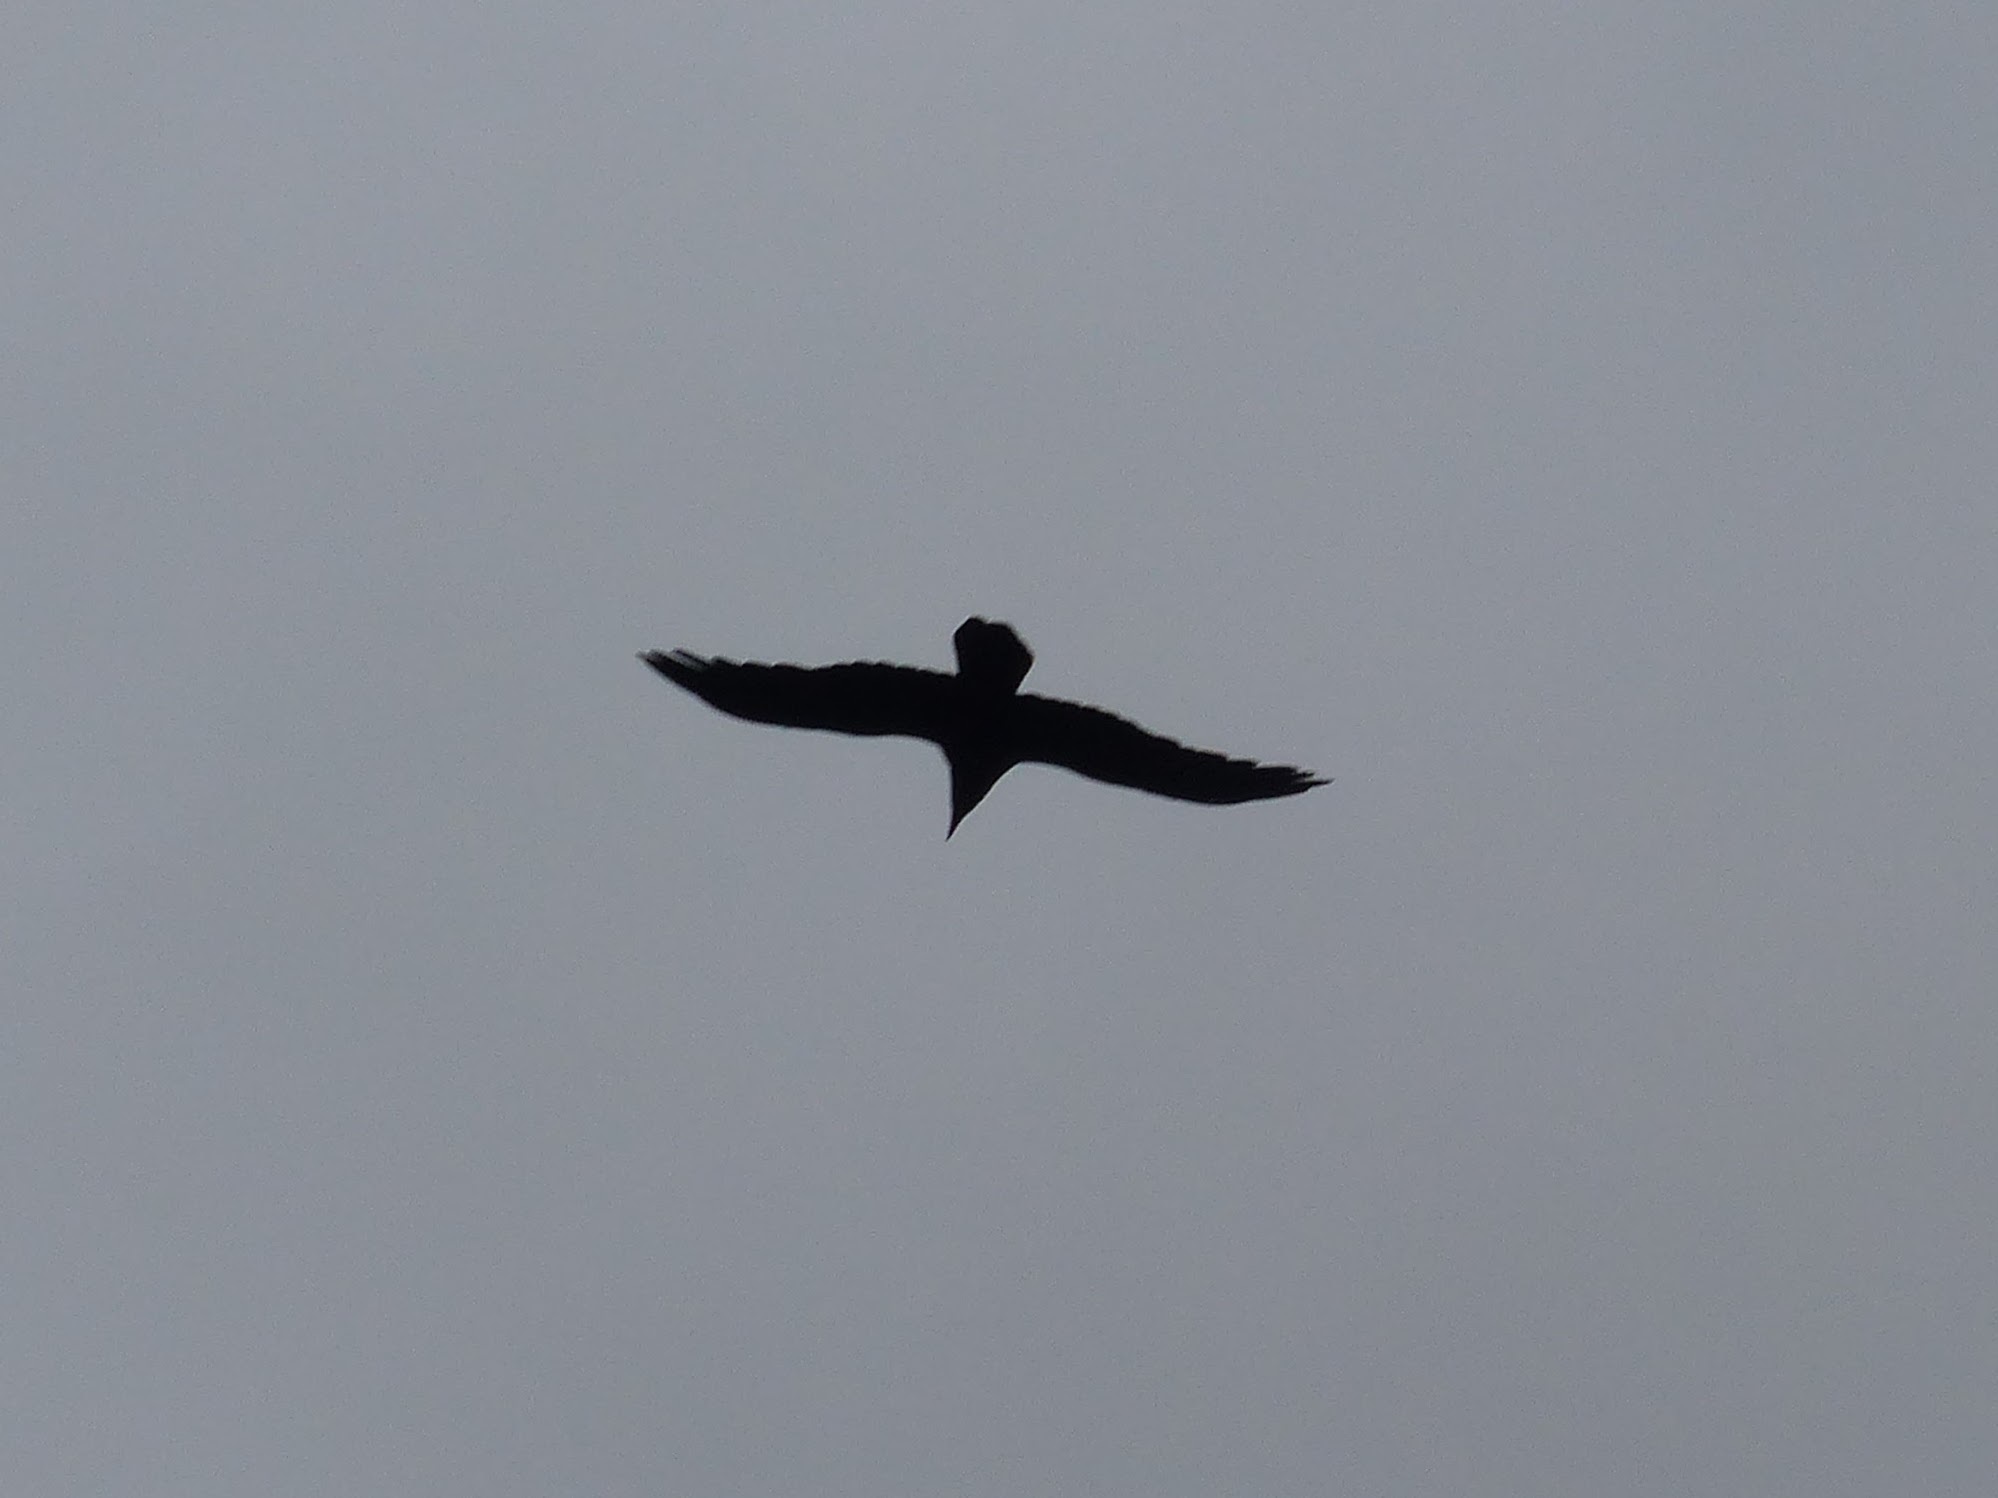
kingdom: Animalia
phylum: Chordata
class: Aves
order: Passeriformes
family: Corvidae
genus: Corvus
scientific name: Corvus corax
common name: Common raven
